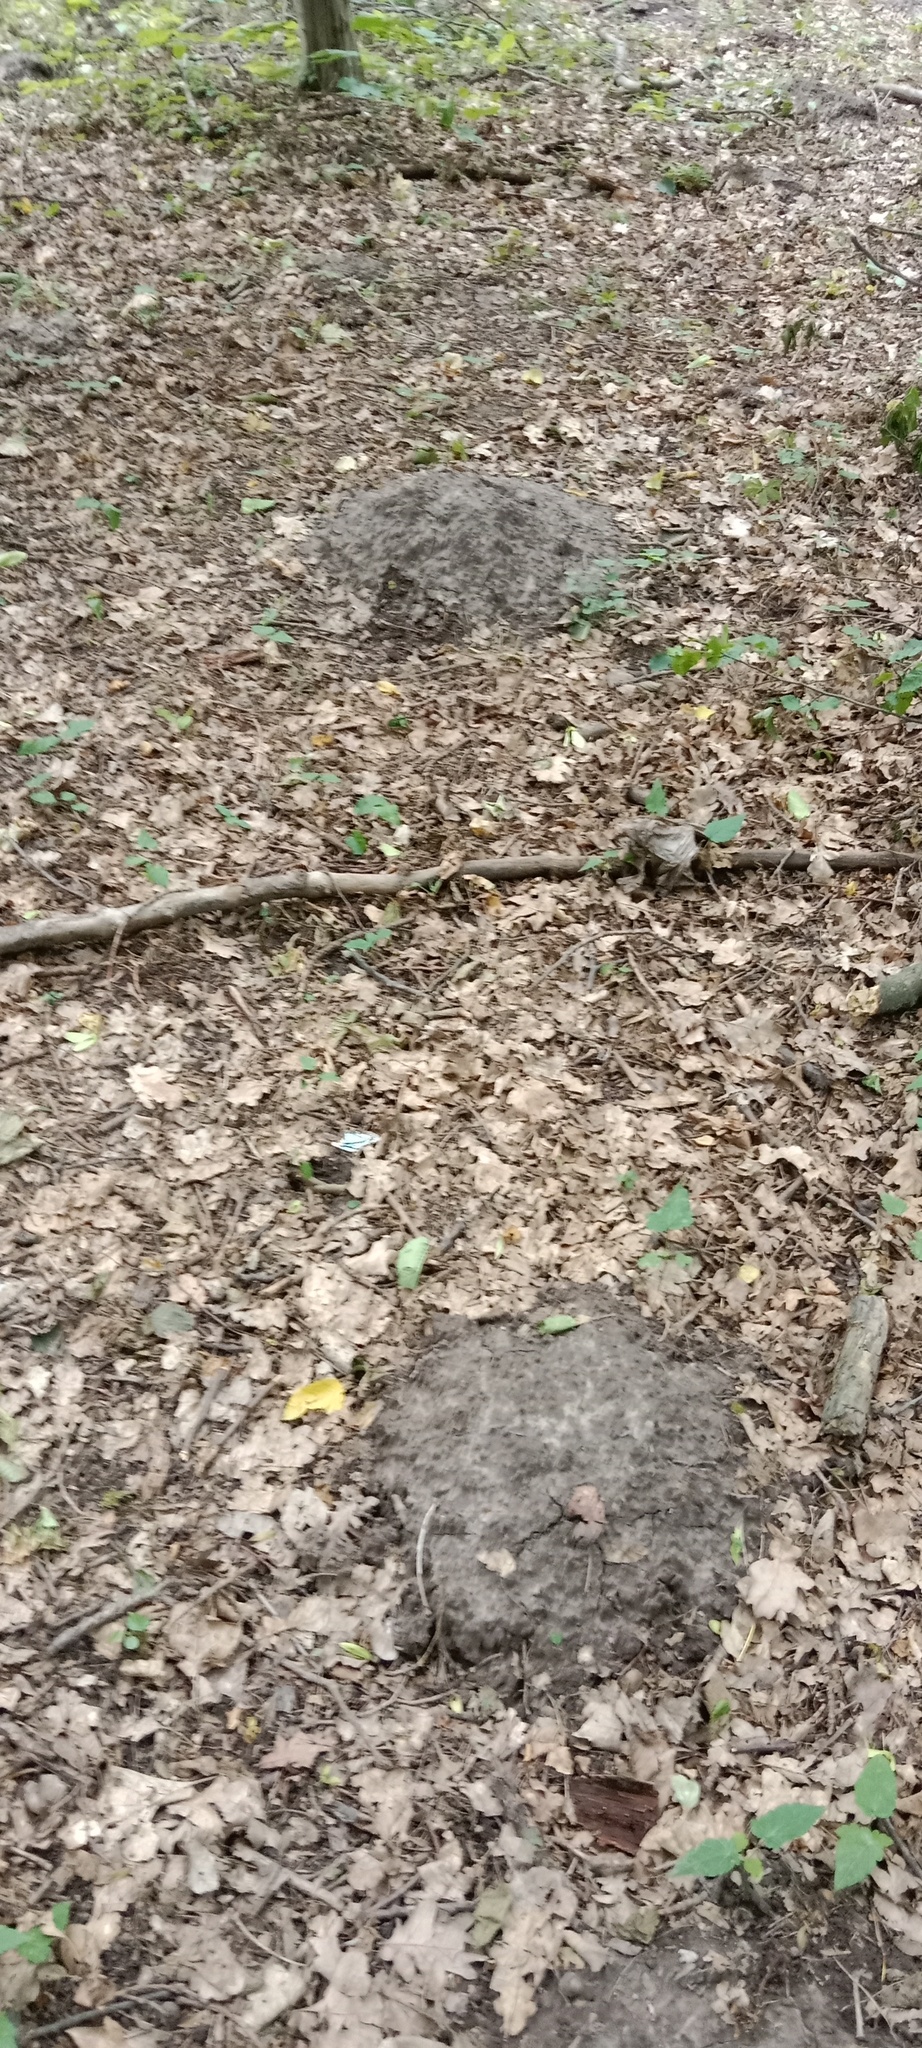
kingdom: Animalia
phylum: Chordata
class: Mammalia
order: Soricomorpha
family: Talpidae
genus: Talpa
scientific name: Talpa europaea
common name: European mole
